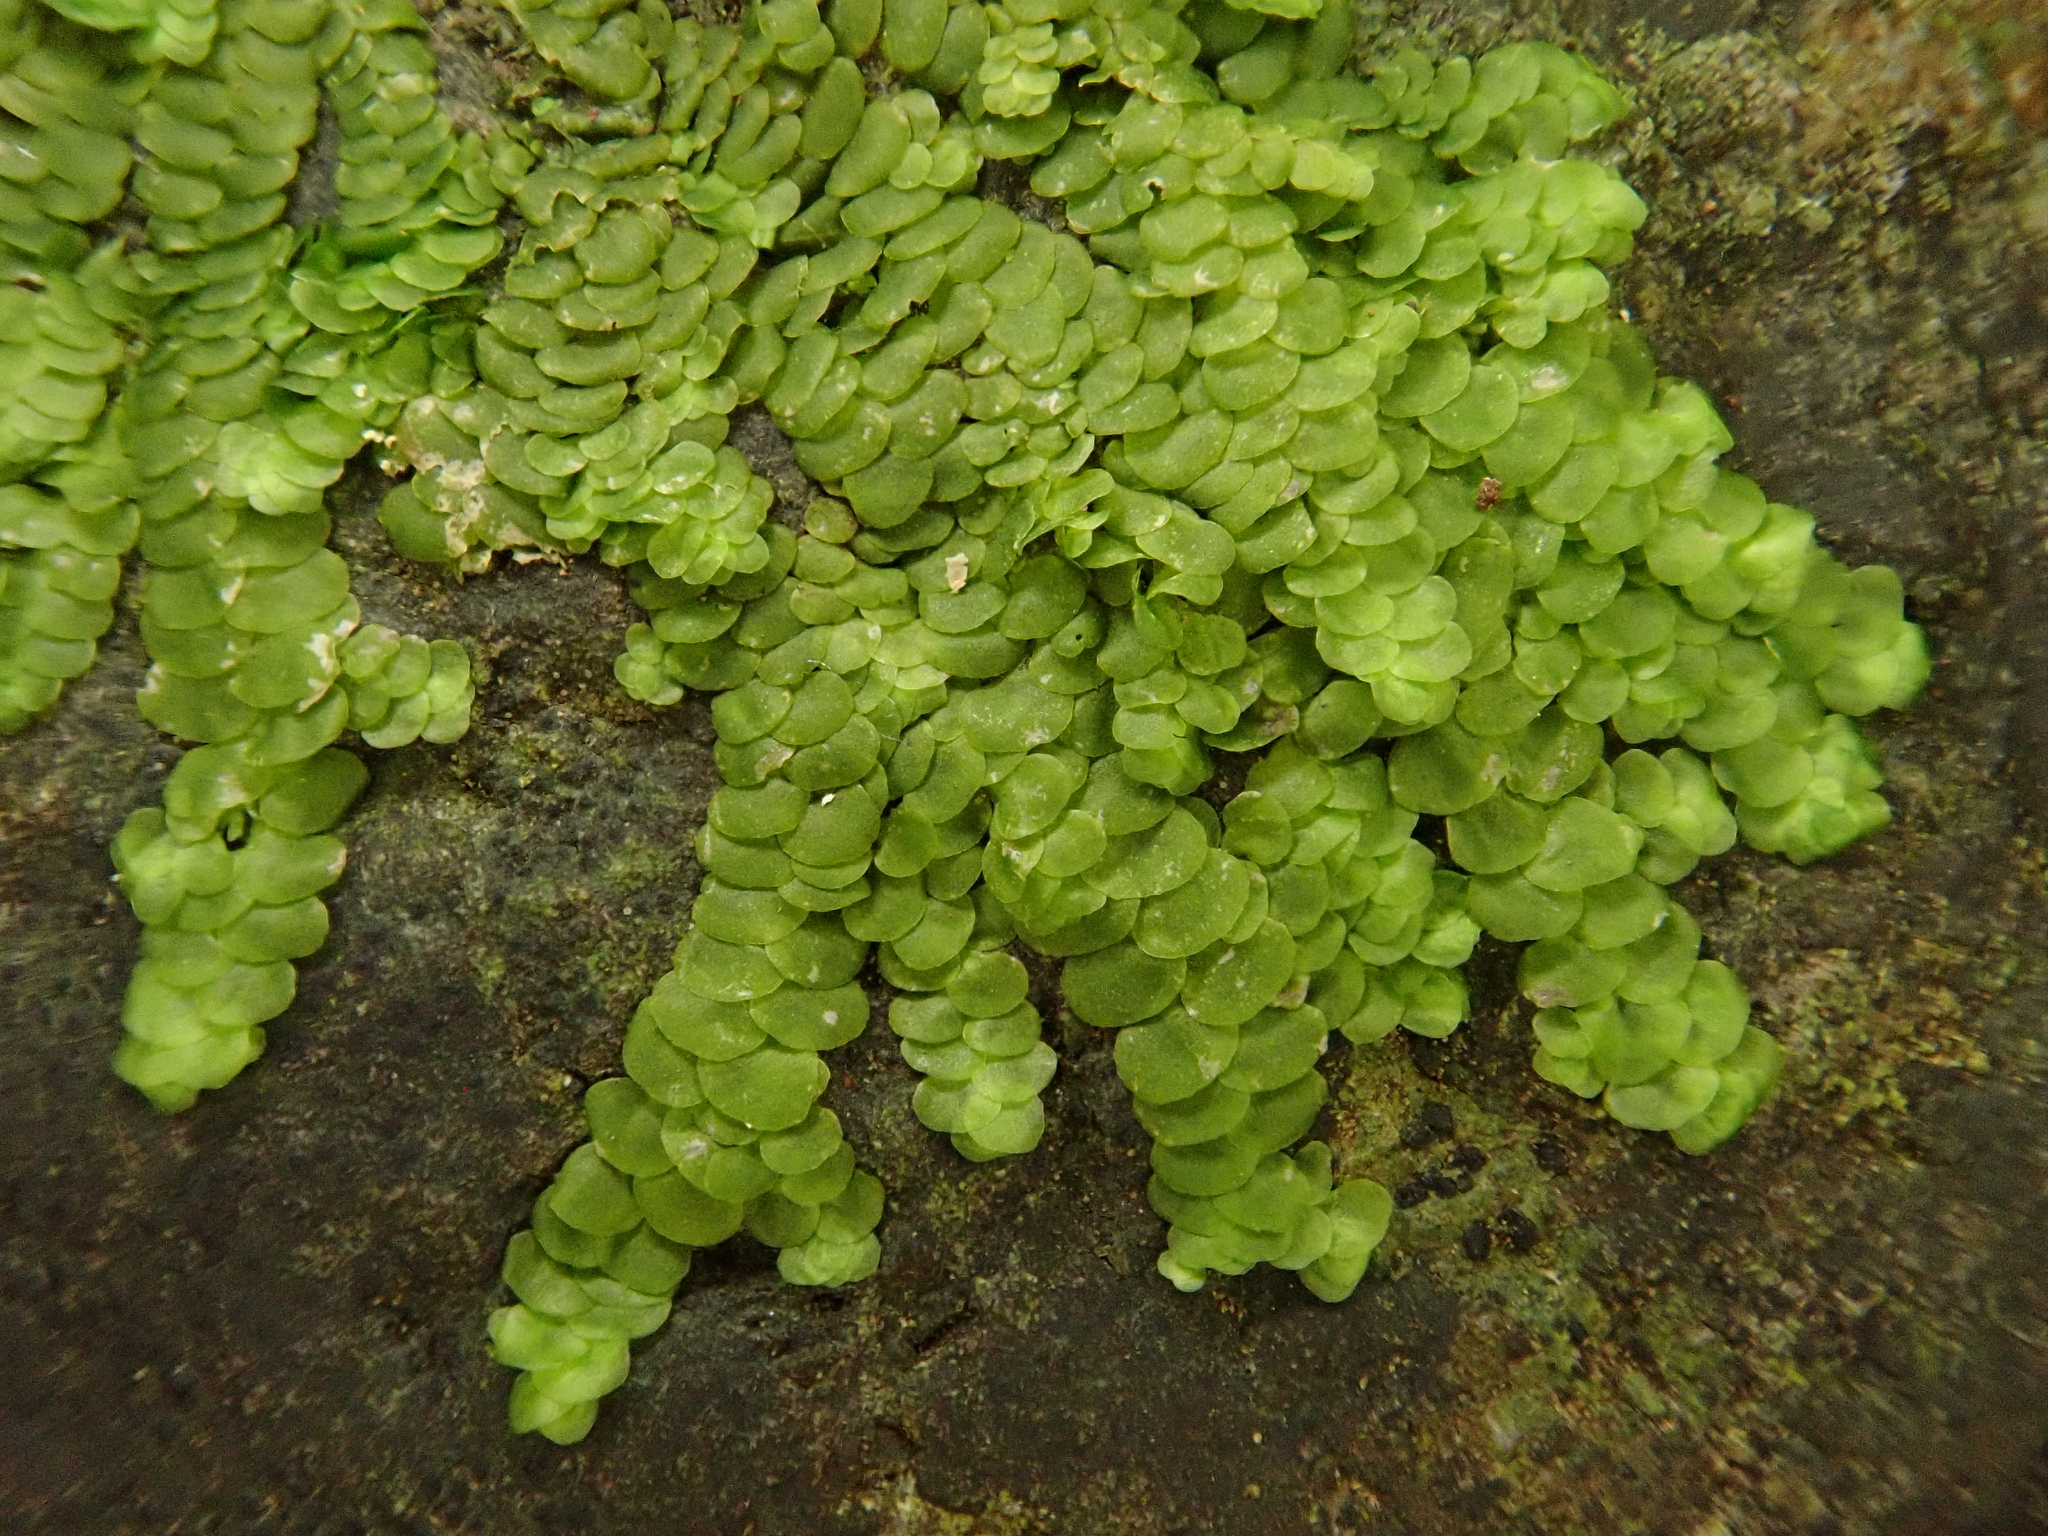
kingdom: Plantae
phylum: Marchantiophyta
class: Jungermanniopsida
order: Porellales
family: Lejeuneaceae
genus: Marchesinia
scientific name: Marchesinia mackaii
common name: Mackay's pouncewort
